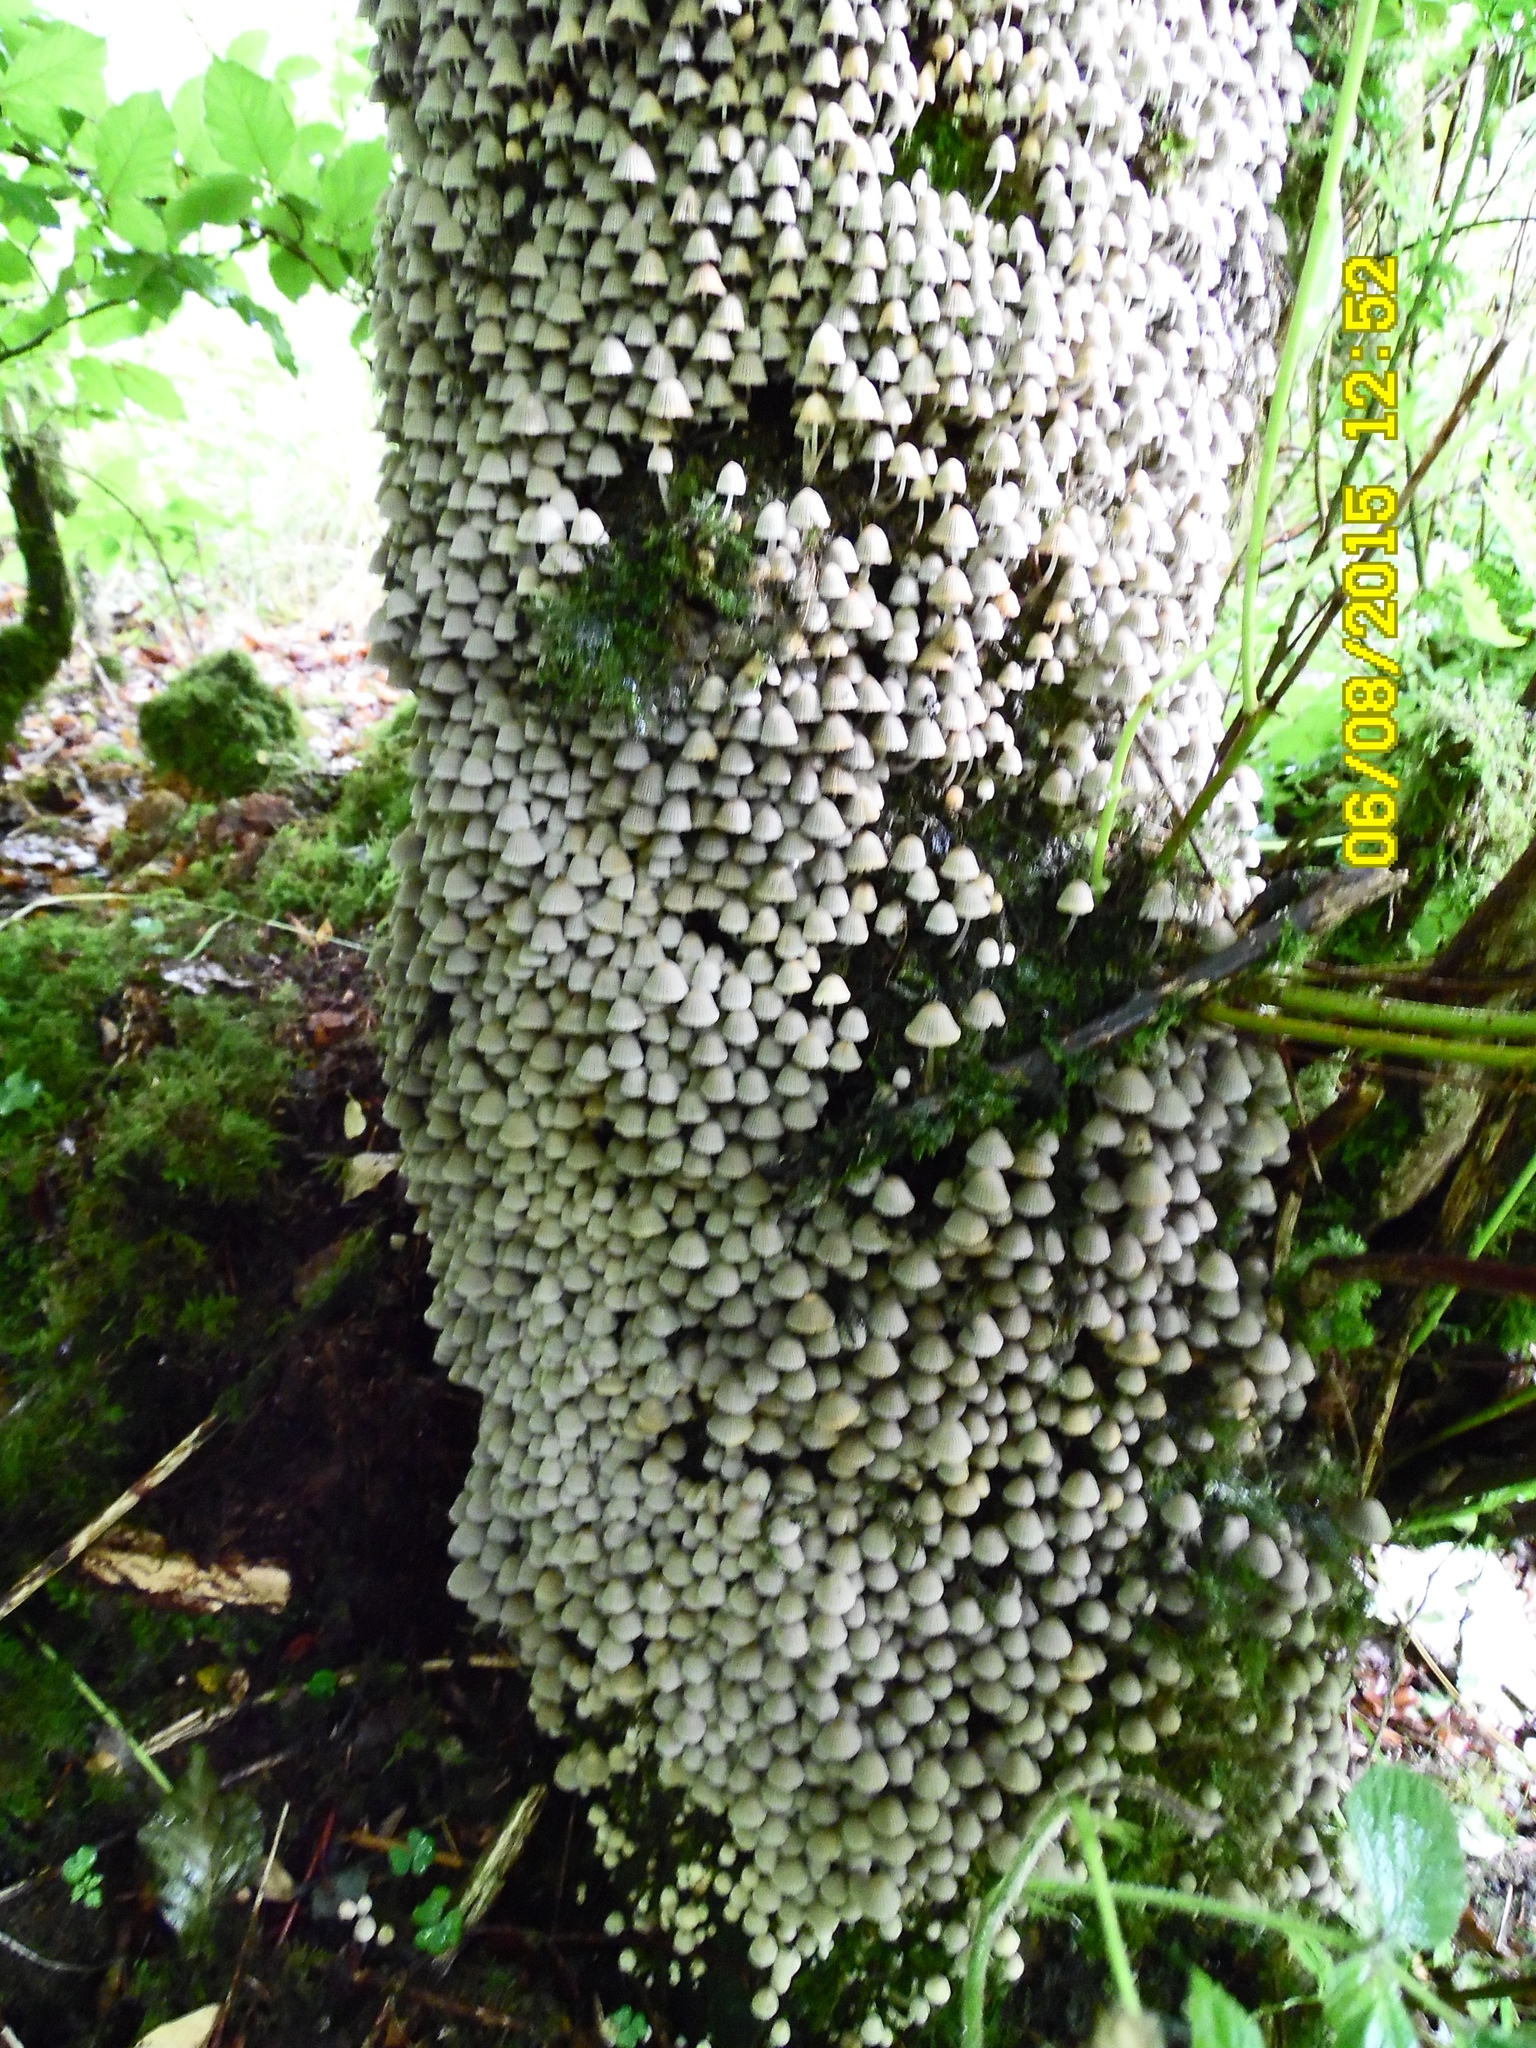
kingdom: Fungi
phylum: Basidiomycota
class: Agaricomycetes
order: Agaricales
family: Psathyrellaceae
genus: Coprinellus
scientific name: Coprinellus disseminatus
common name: Fairies' bonnets
